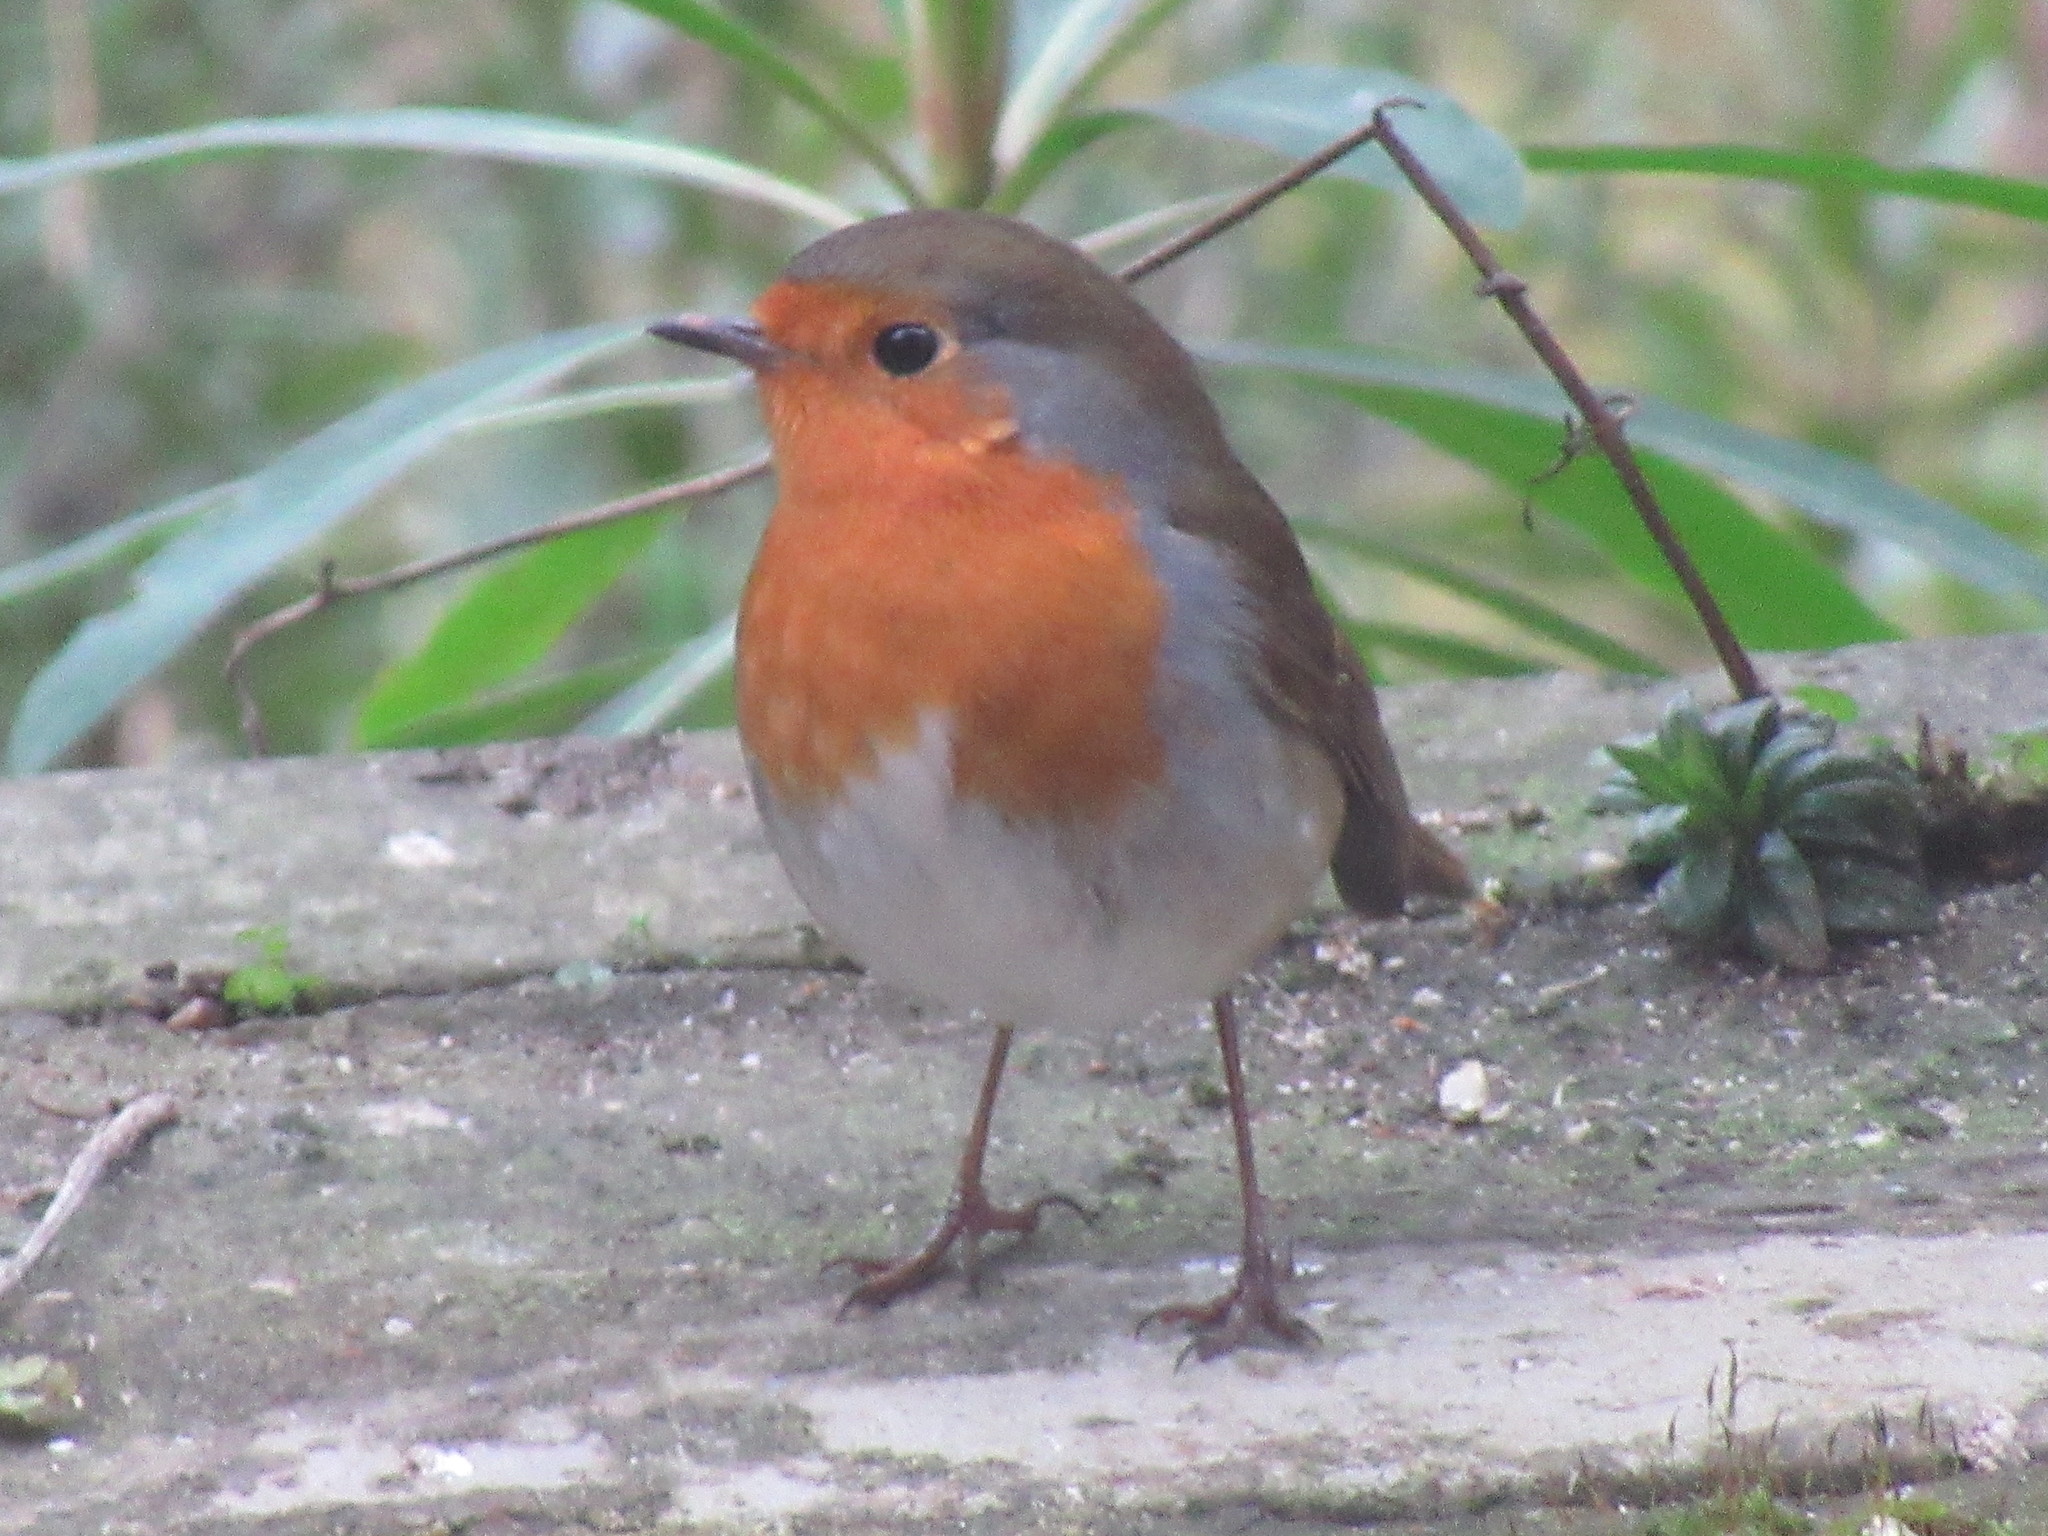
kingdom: Animalia
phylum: Chordata
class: Aves
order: Passeriformes
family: Muscicapidae
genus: Erithacus
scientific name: Erithacus rubecula
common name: European robin
